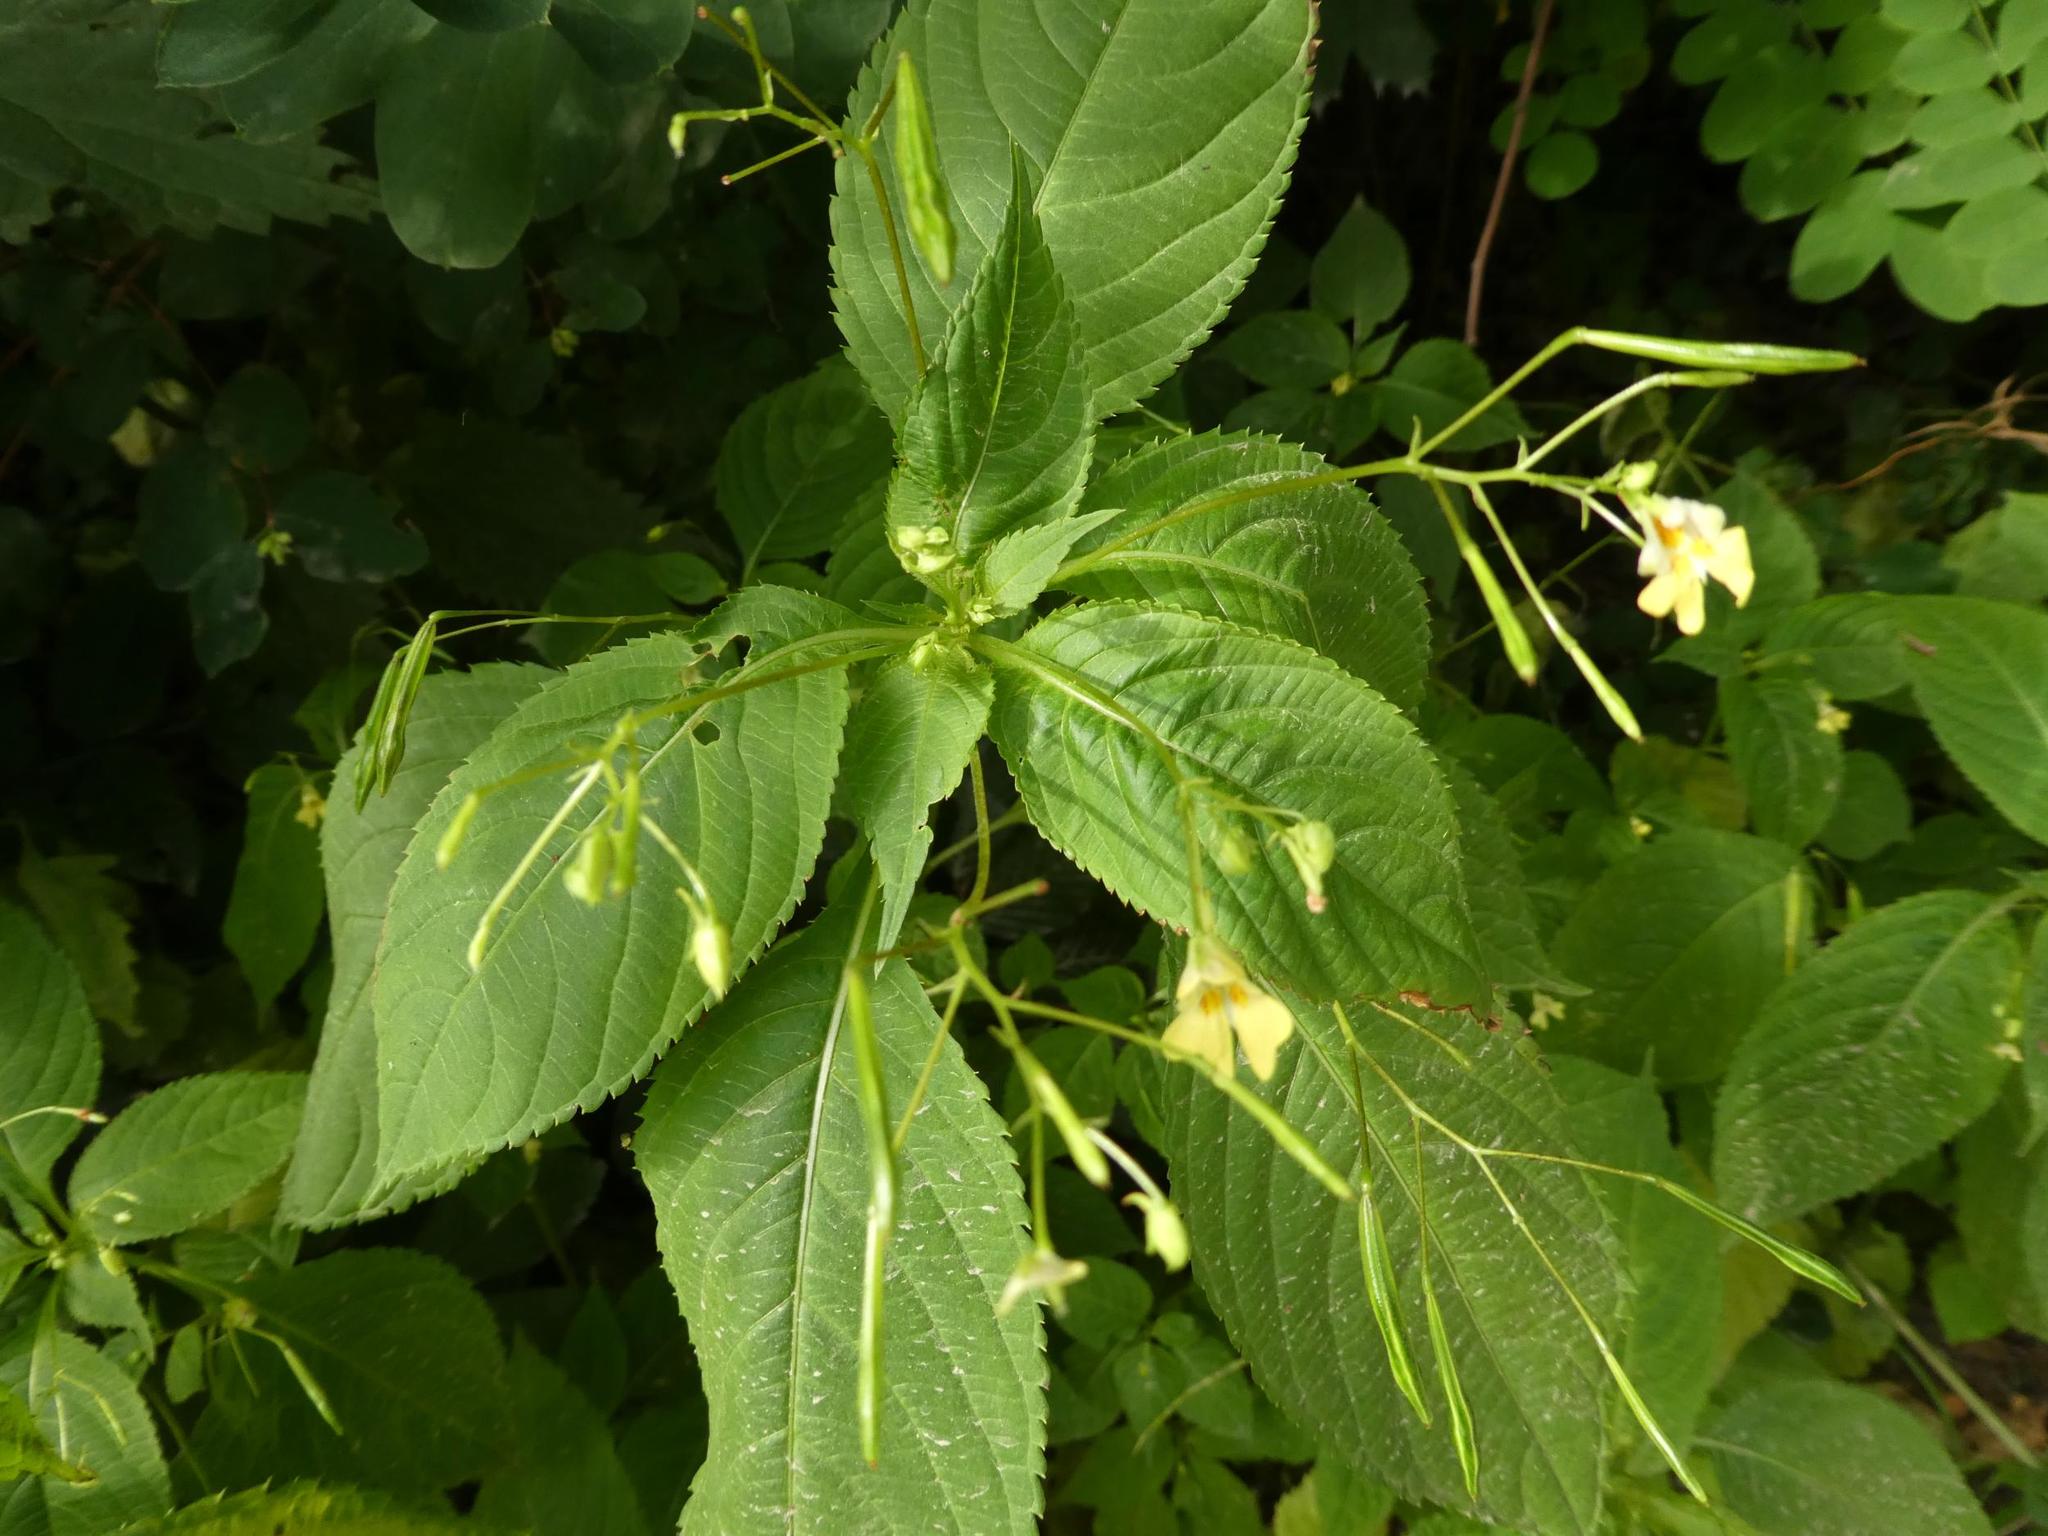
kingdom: Plantae
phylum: Tracheophyta
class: Magnoliopsida
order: Ericales
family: Balsaminaceae
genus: Impatiens
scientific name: Impatiens parviflora
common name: Small balsam
